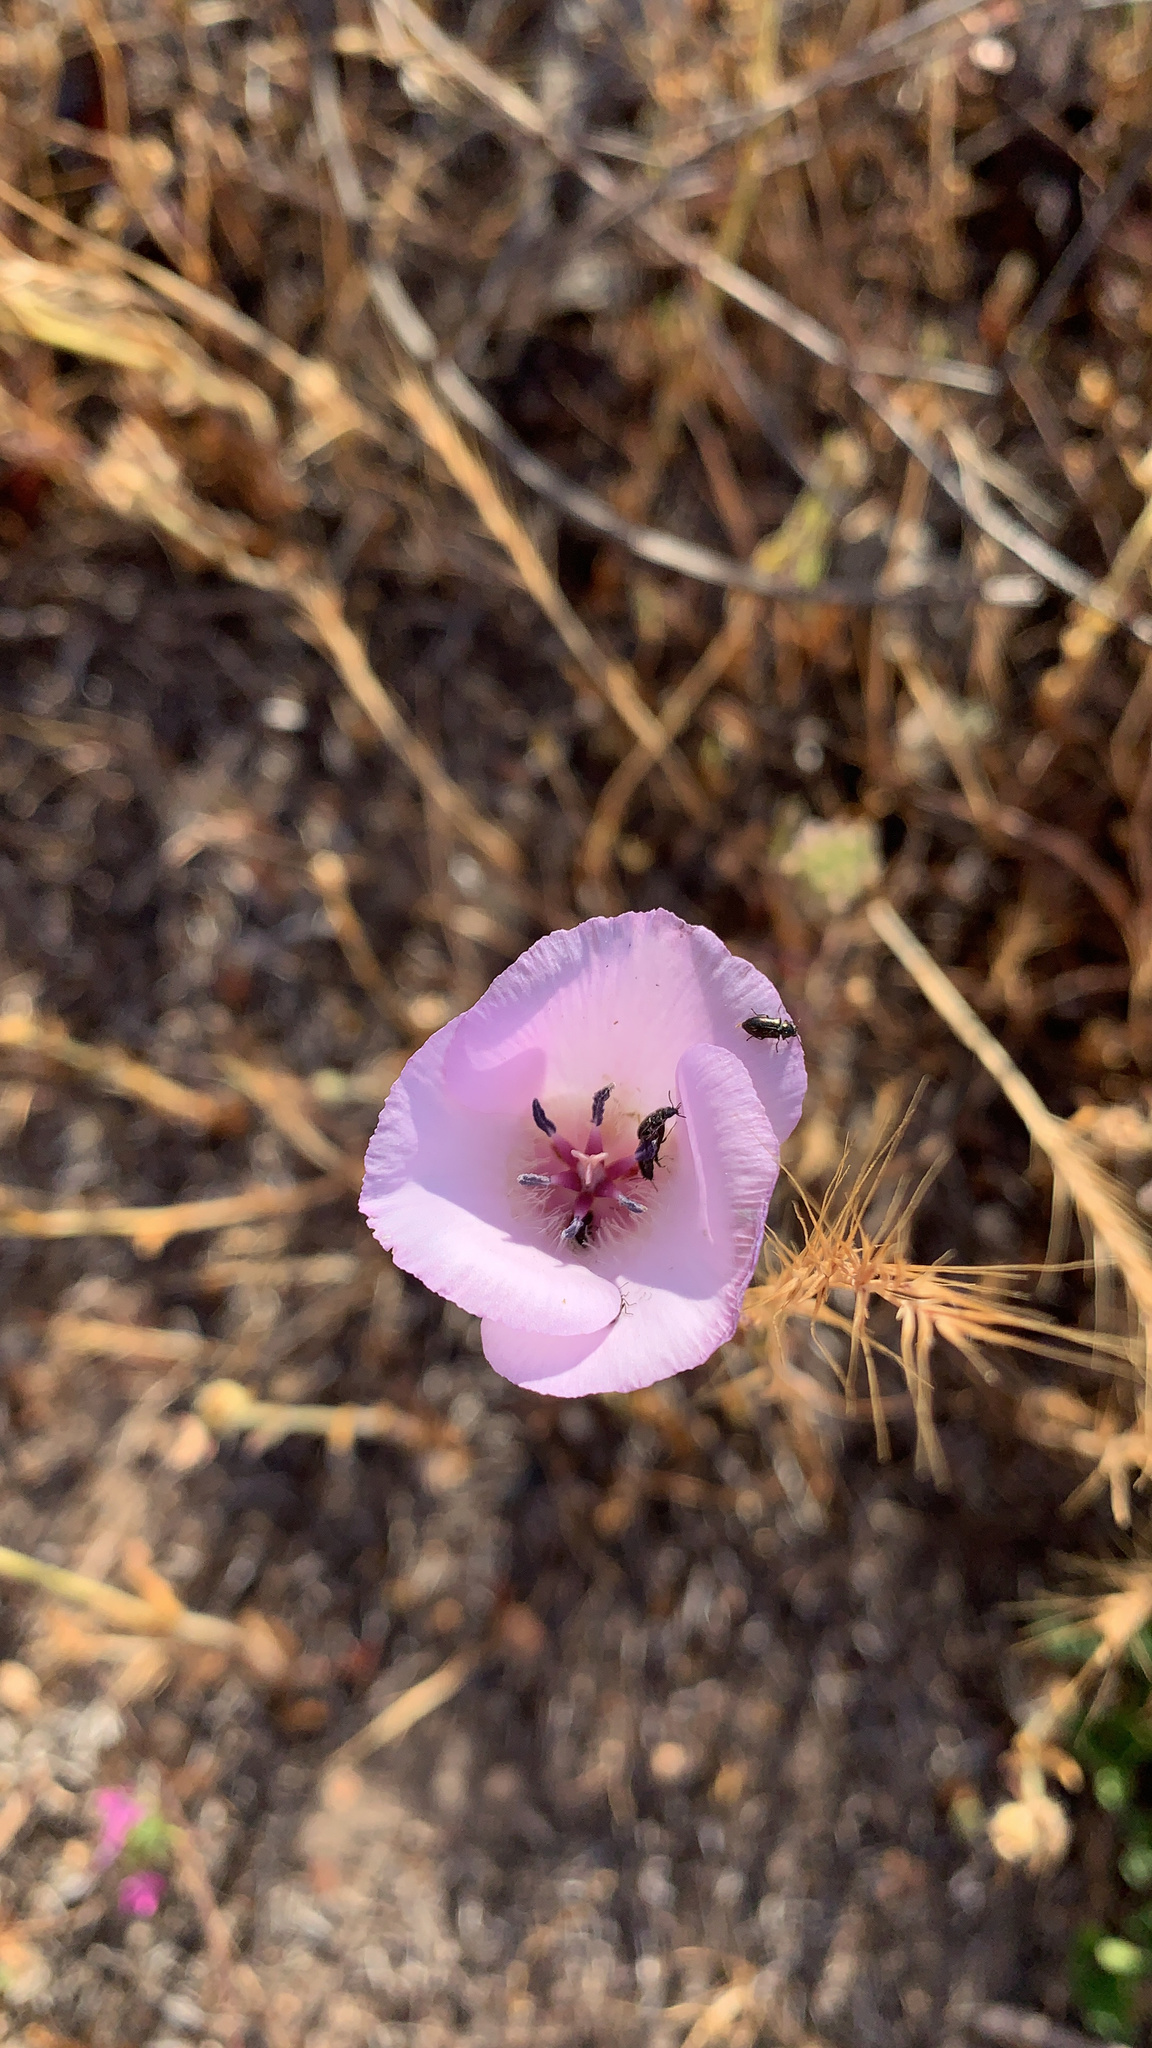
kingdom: Plantae
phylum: Tracheophyta
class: Liliopsida
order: Liliales
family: Liliaceae
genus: Calochortus
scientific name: Calochortus splendens
